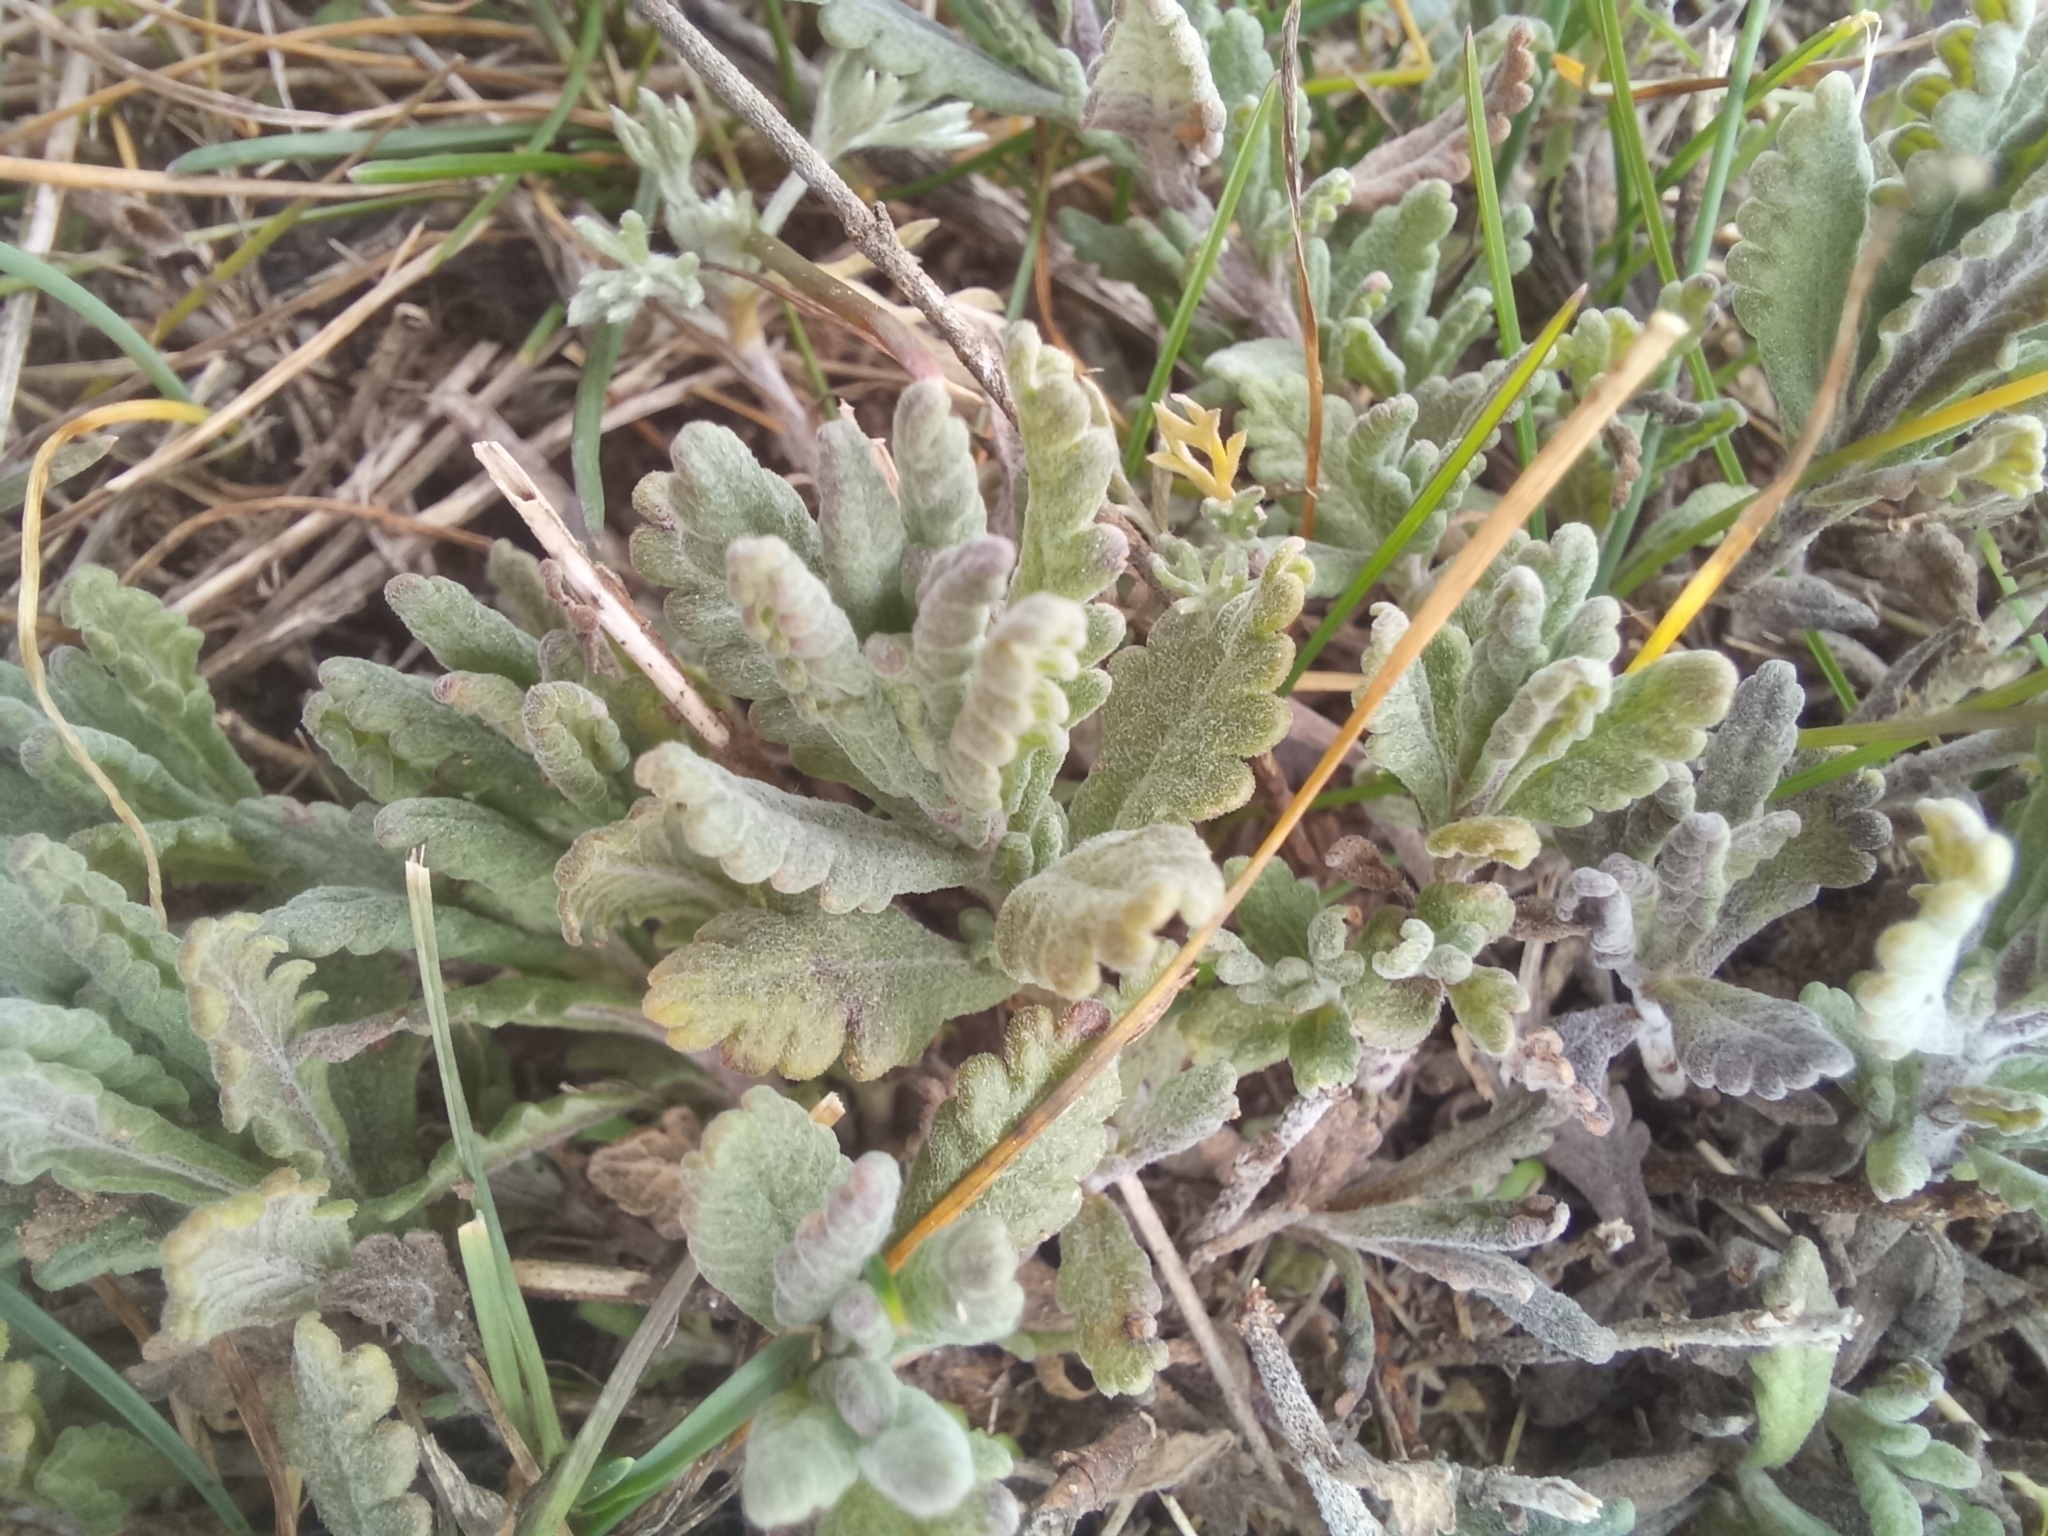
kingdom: Plantae
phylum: Tracheophyta
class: Magnoliopsida
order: Lamiales
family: Lamiaceae
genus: Teucrium
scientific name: Teucrium polium
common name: Poley
